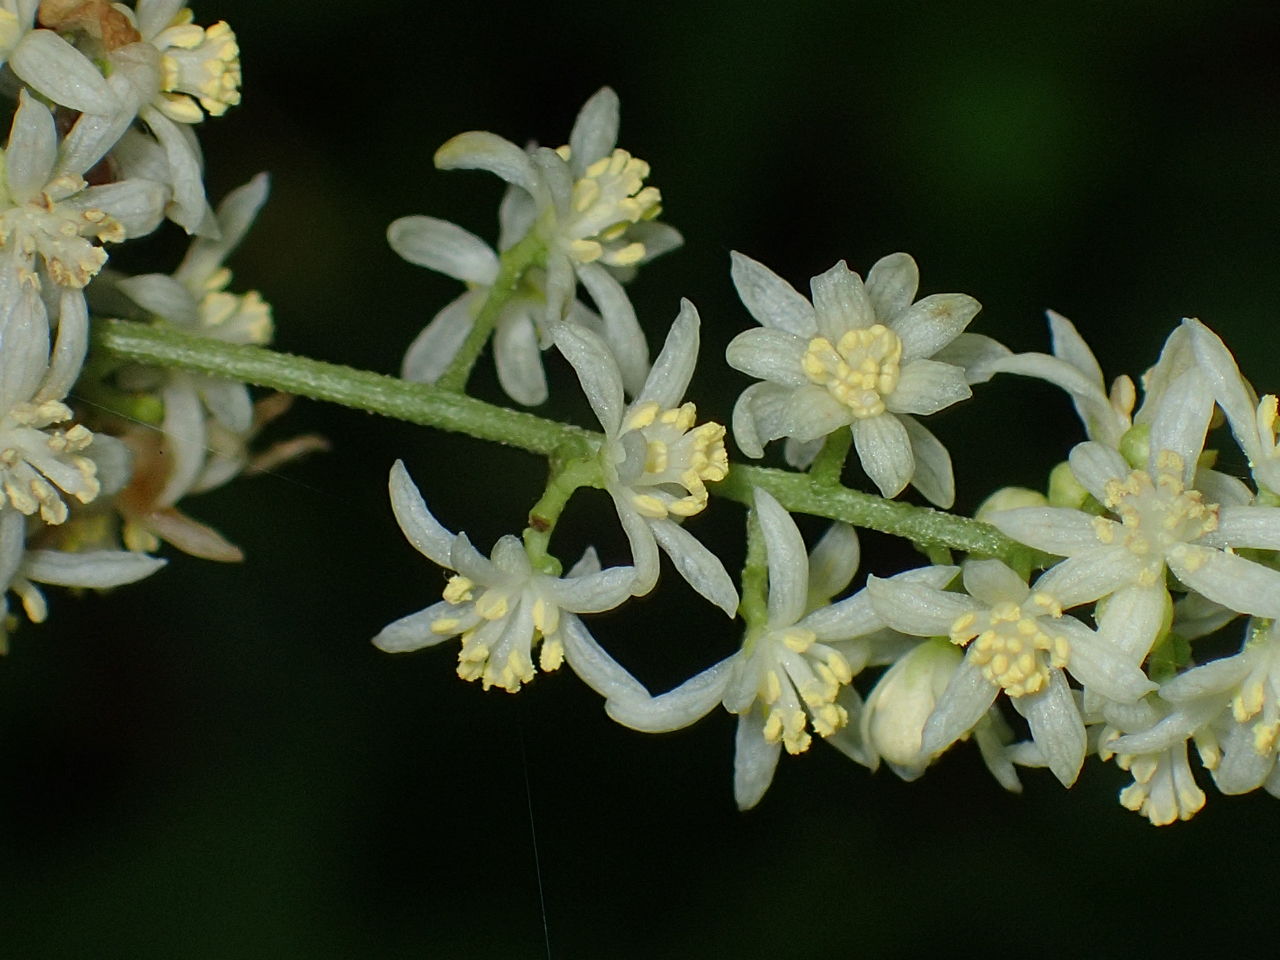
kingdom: Plantae
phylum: Tracheophyta
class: Magnoliopsida
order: Ranunculales
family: Menispermaceae
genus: Calycocarpum
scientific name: Calycocarpum lyonii
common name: Cupseed
